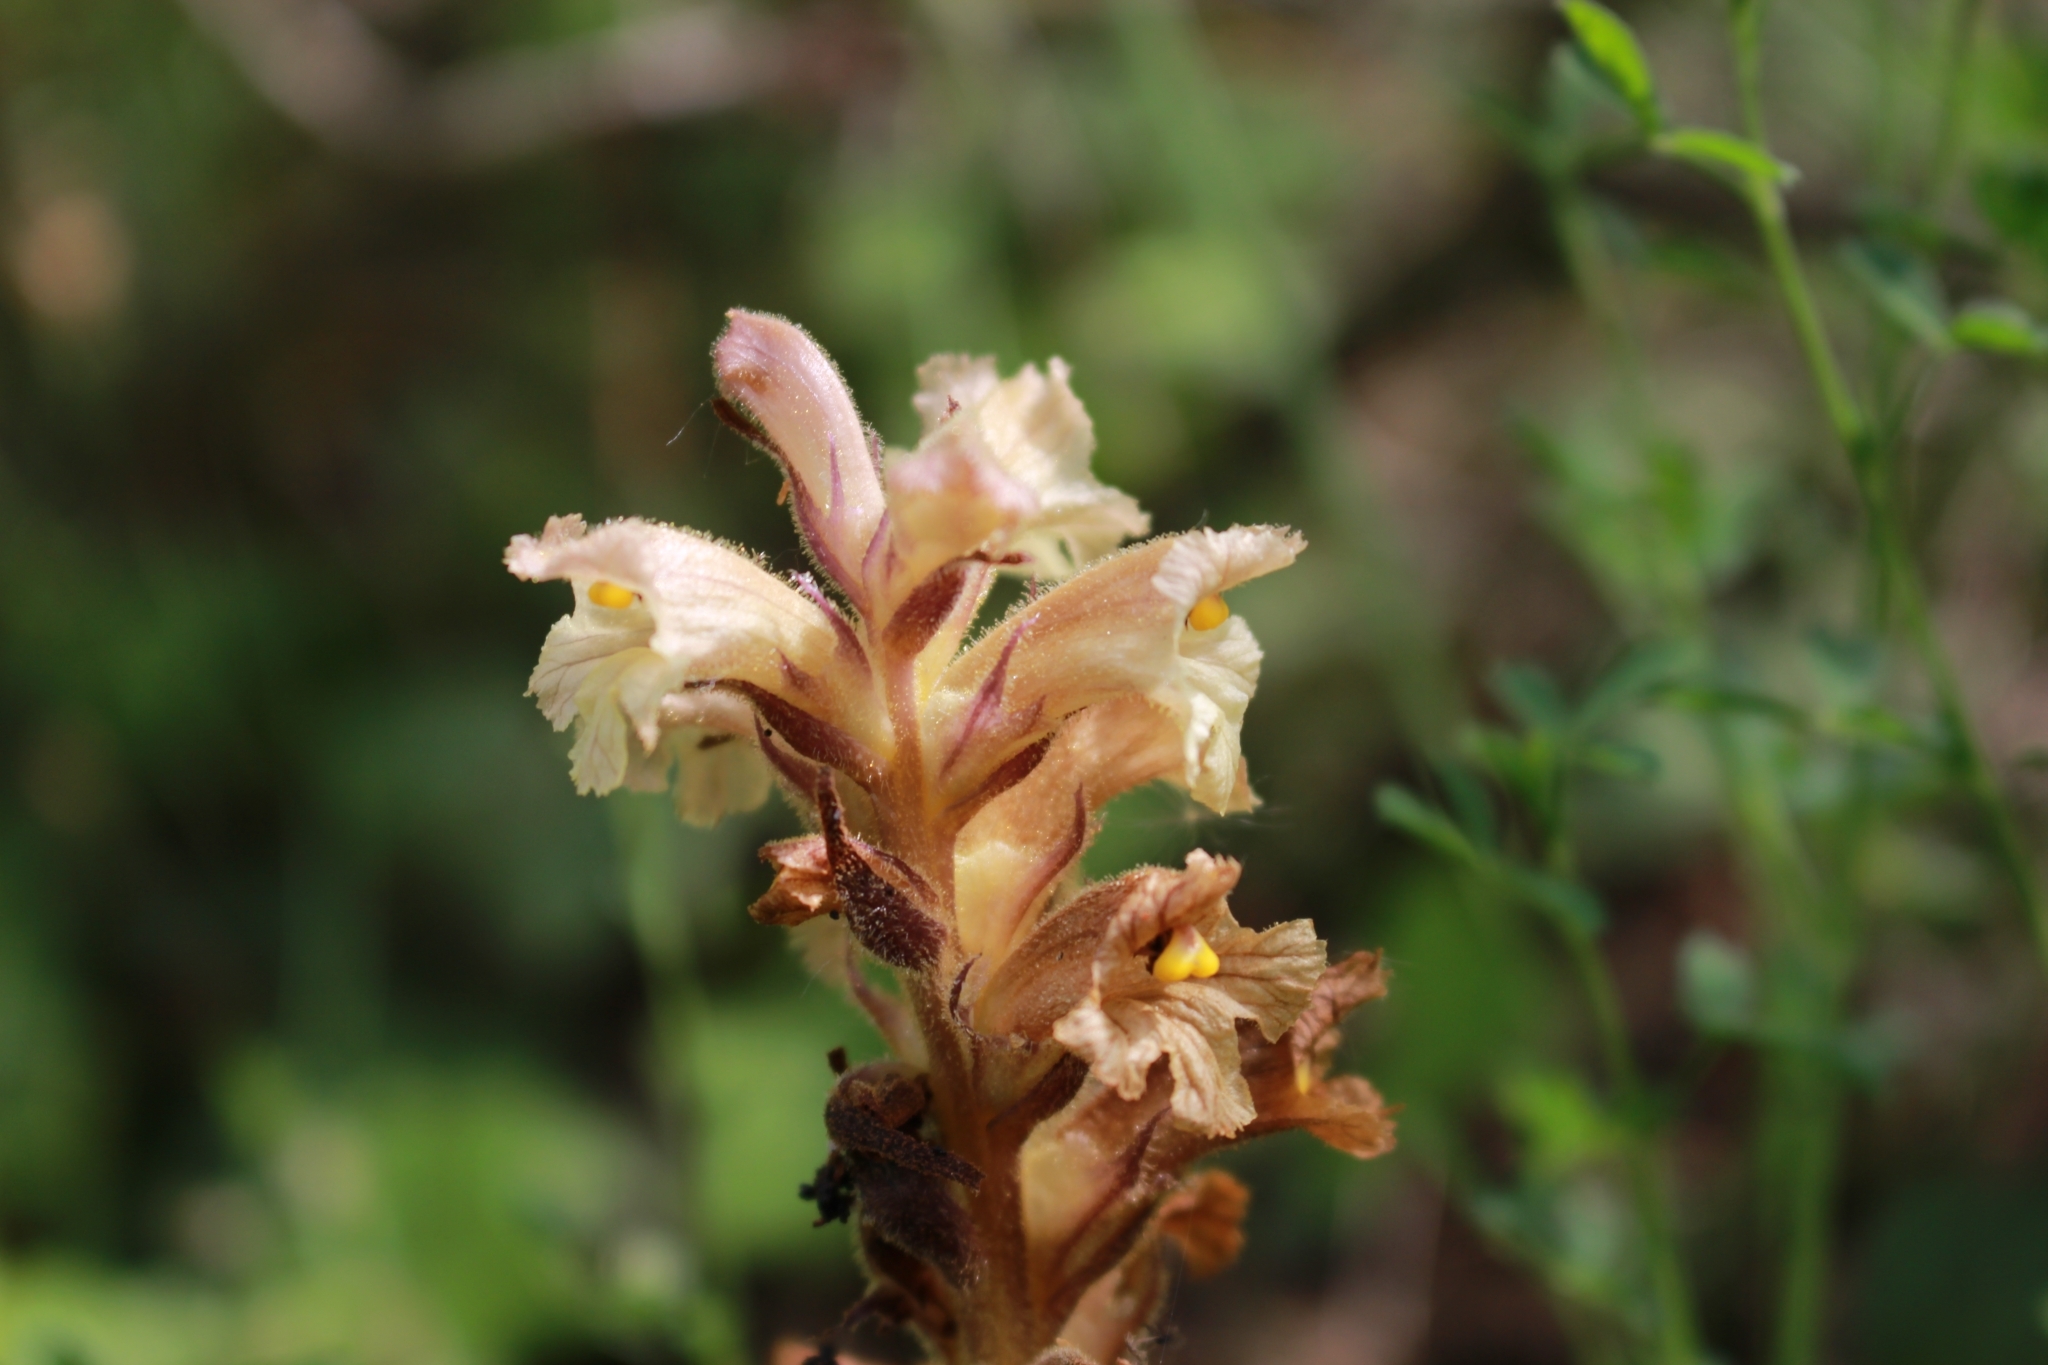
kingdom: Plantae
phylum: Tracheophyta
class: Magnoliopsida
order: Lamiales
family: Orobanchaceae
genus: Orobanche
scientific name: Orobanche lutea
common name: Yellow broomrape
